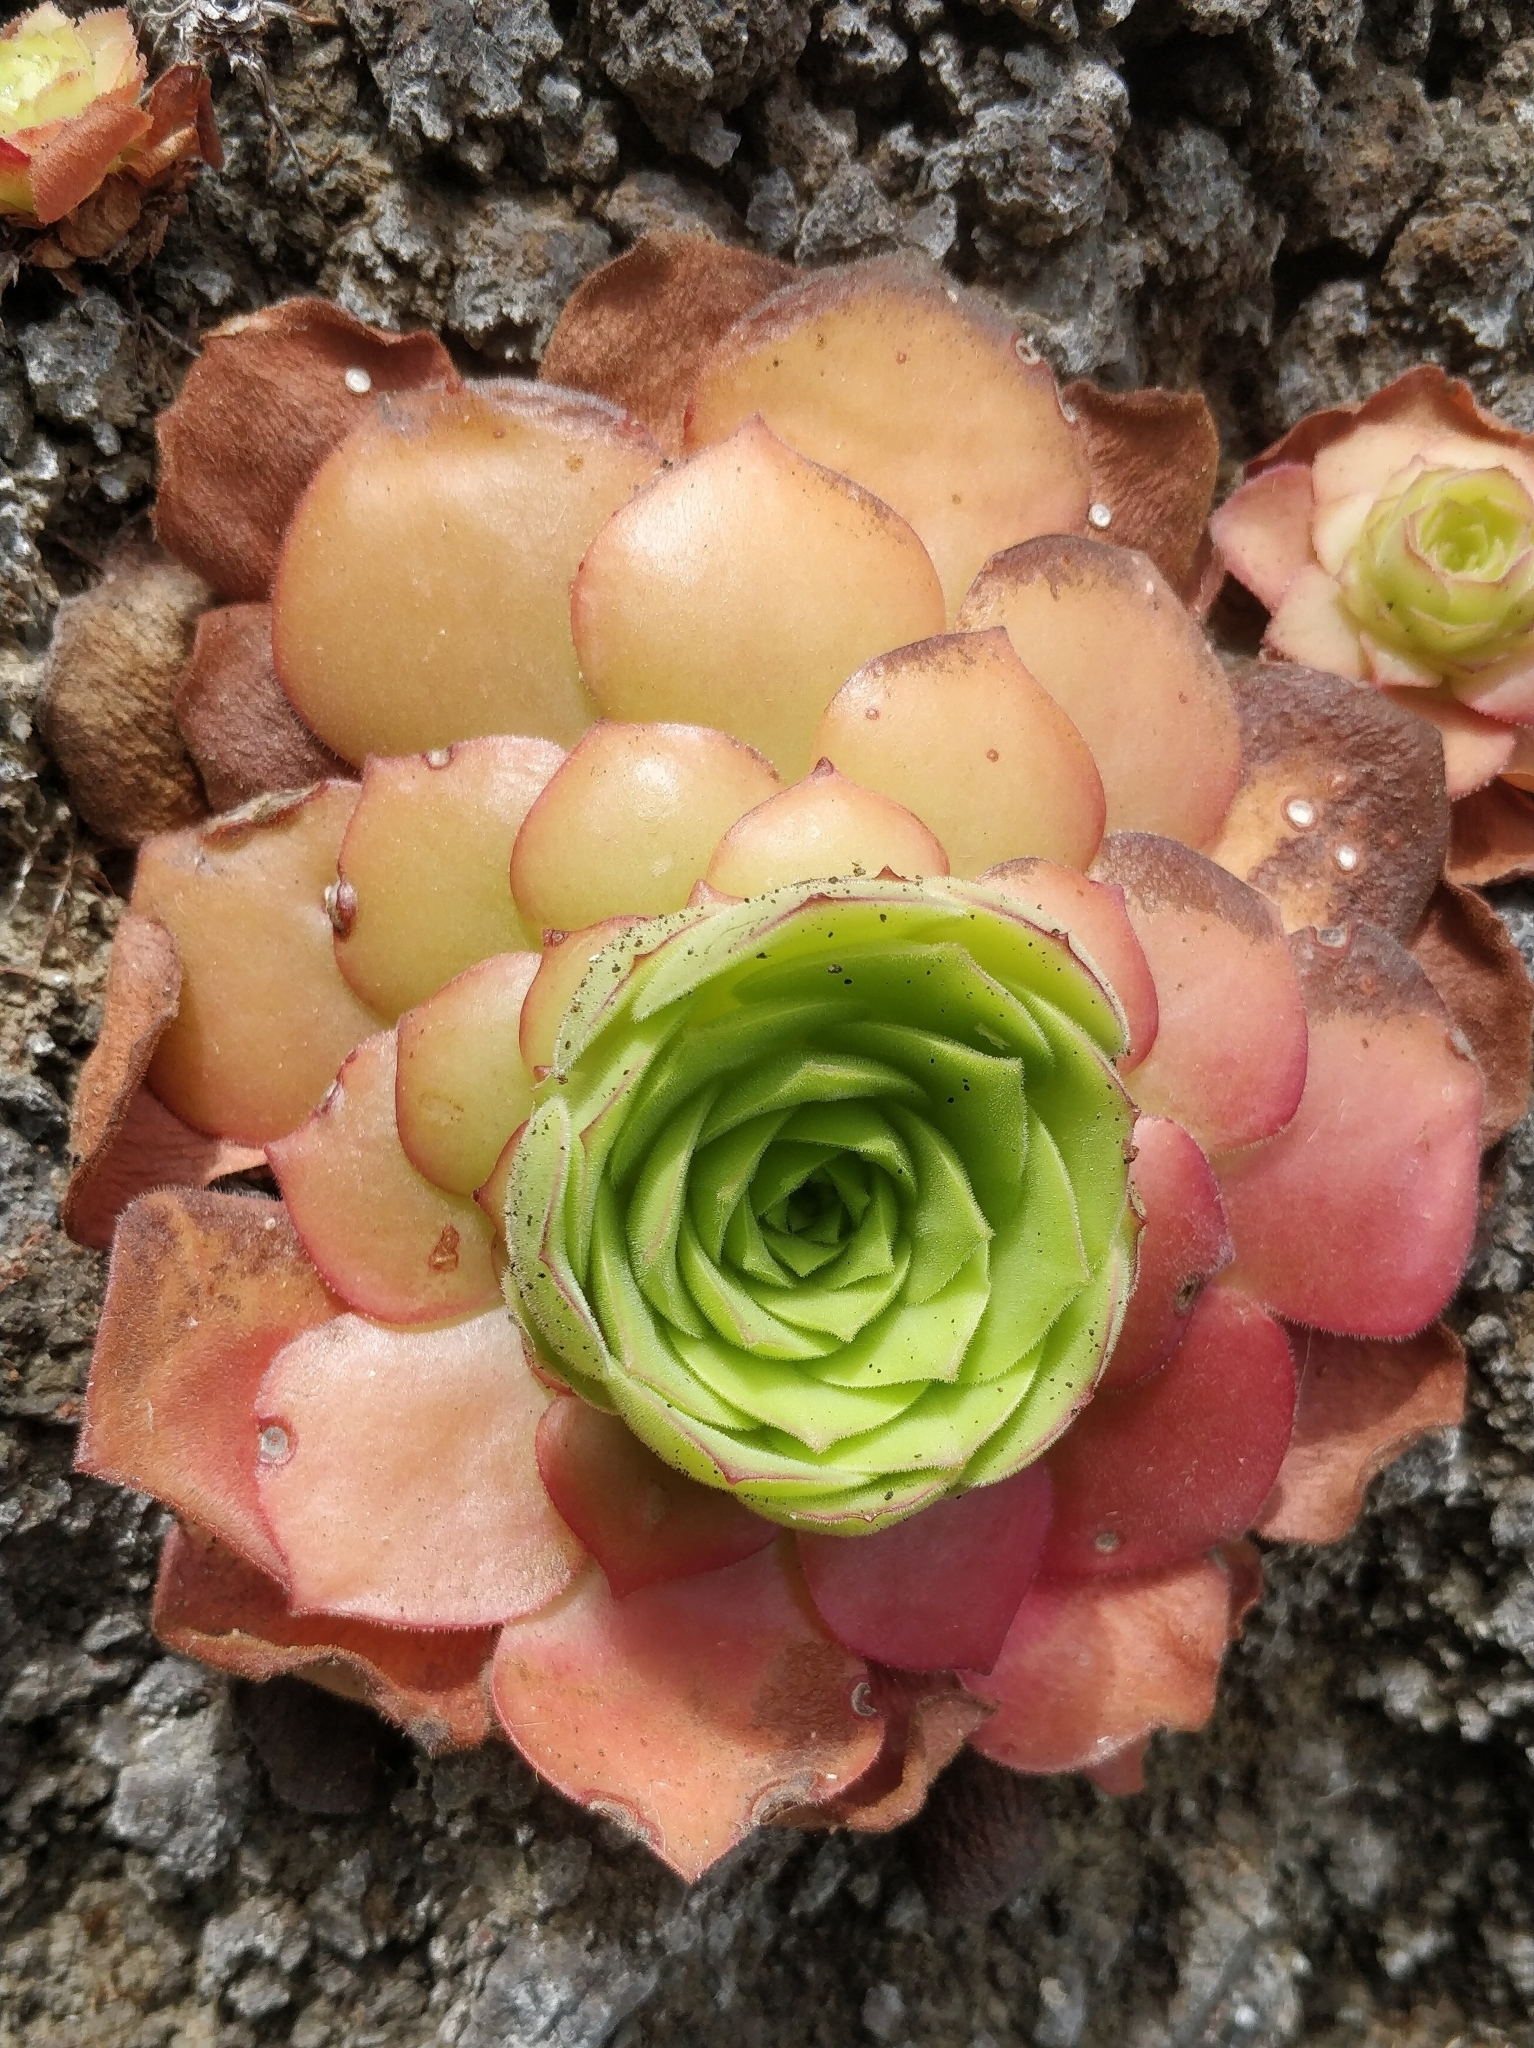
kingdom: Plantae
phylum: Tracheophyta
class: Magnoliopsida
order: Saxifragales
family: Crassulaceae
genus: Aeonium
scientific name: Aeonium glandulosum
